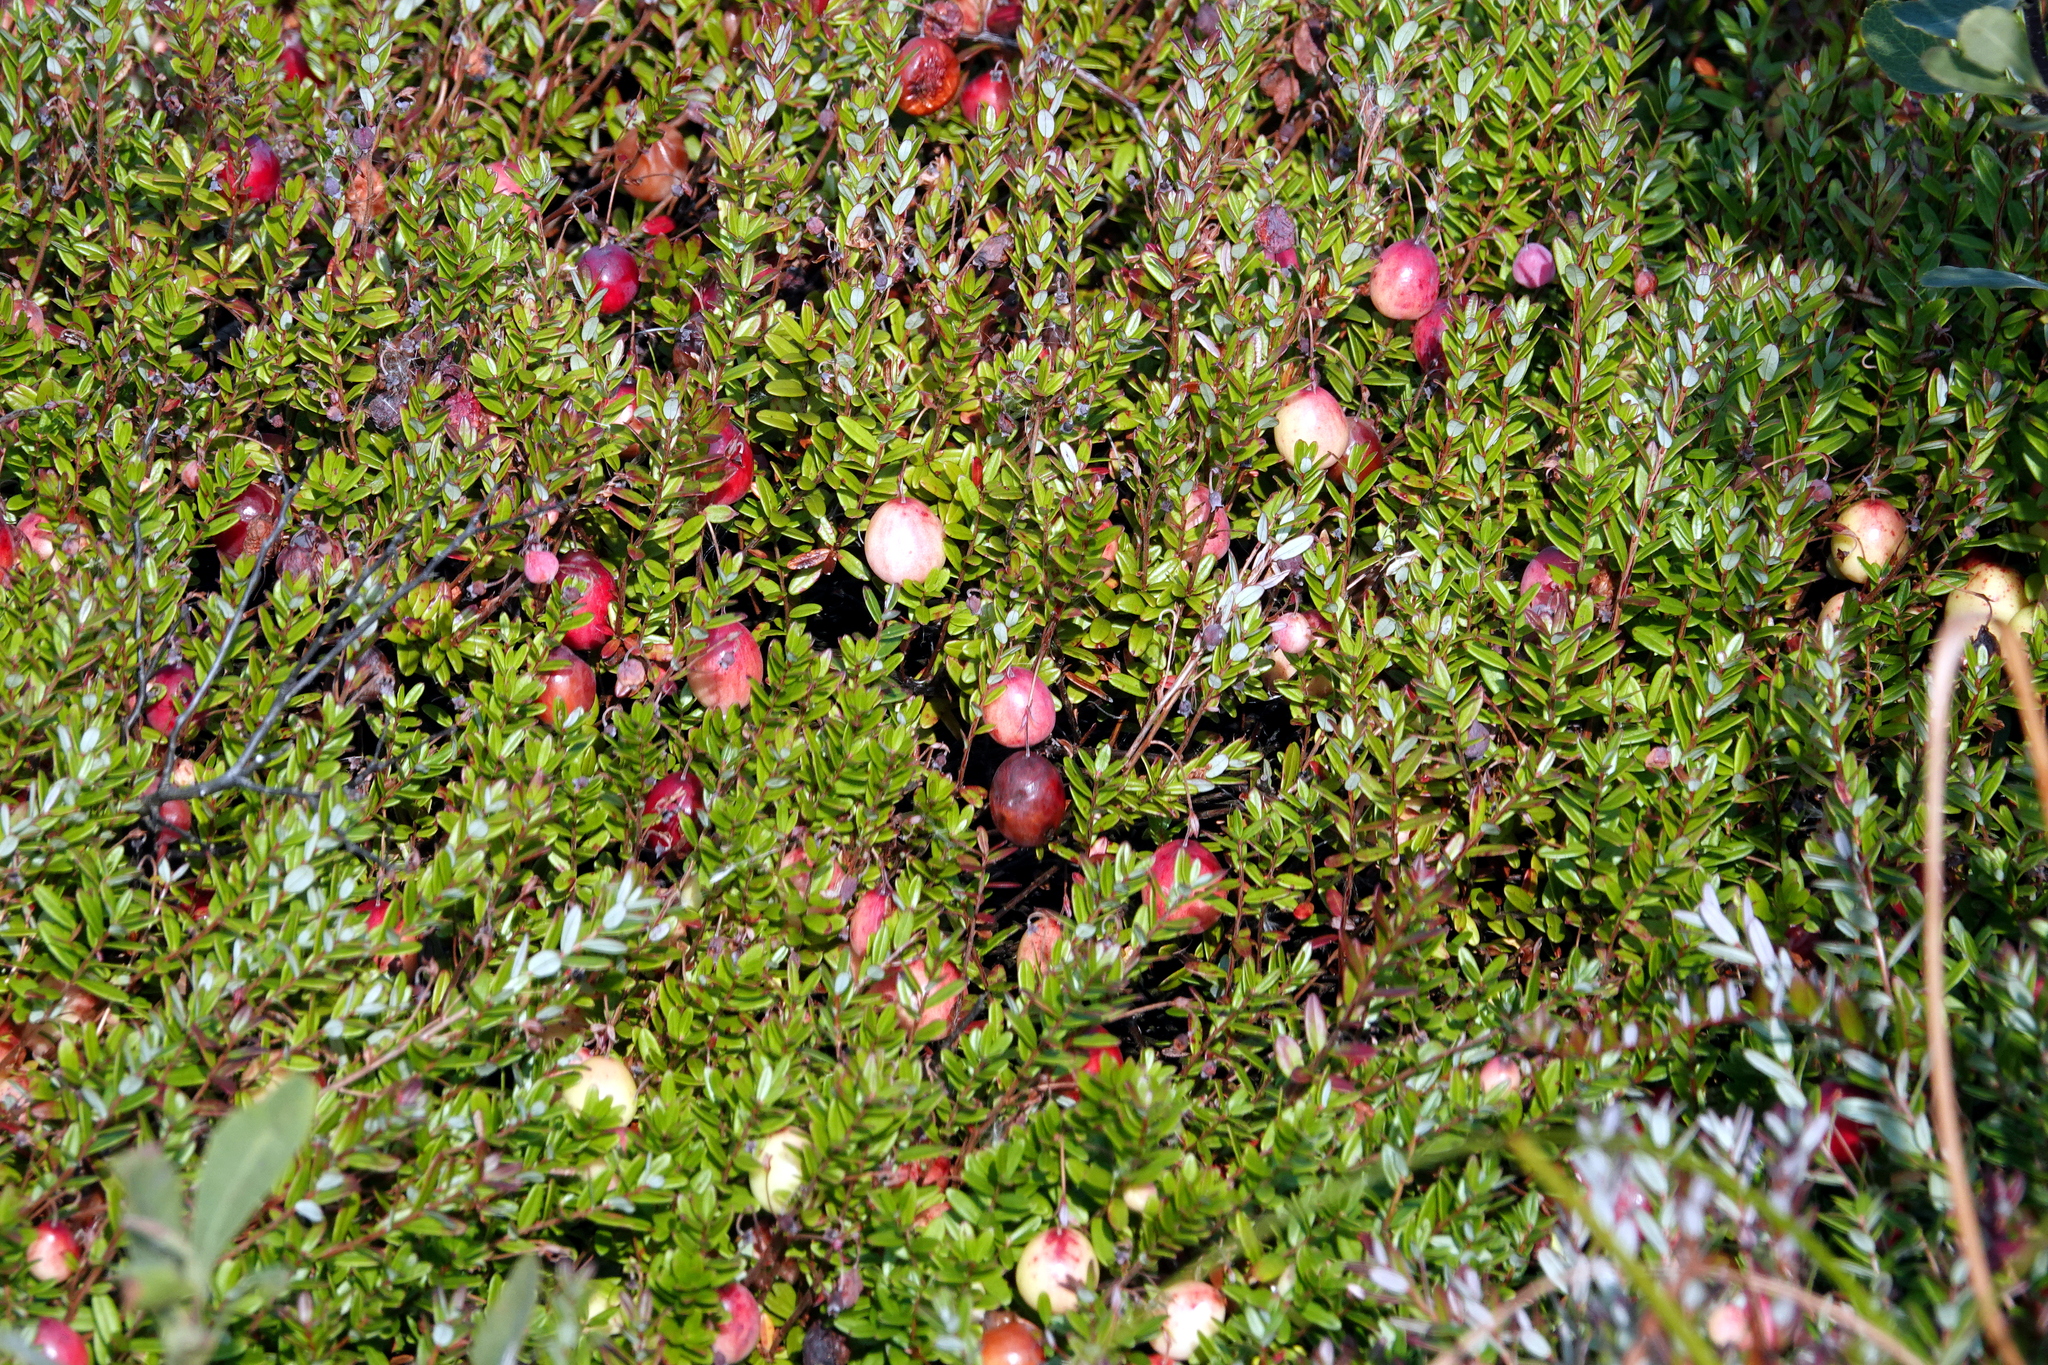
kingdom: Plantae
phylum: Tracheophyta
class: Magnoliopsida
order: Ericales
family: Ericaceae
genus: Vaccinium
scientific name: Vaccinium macrocarpon
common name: American cranberry
